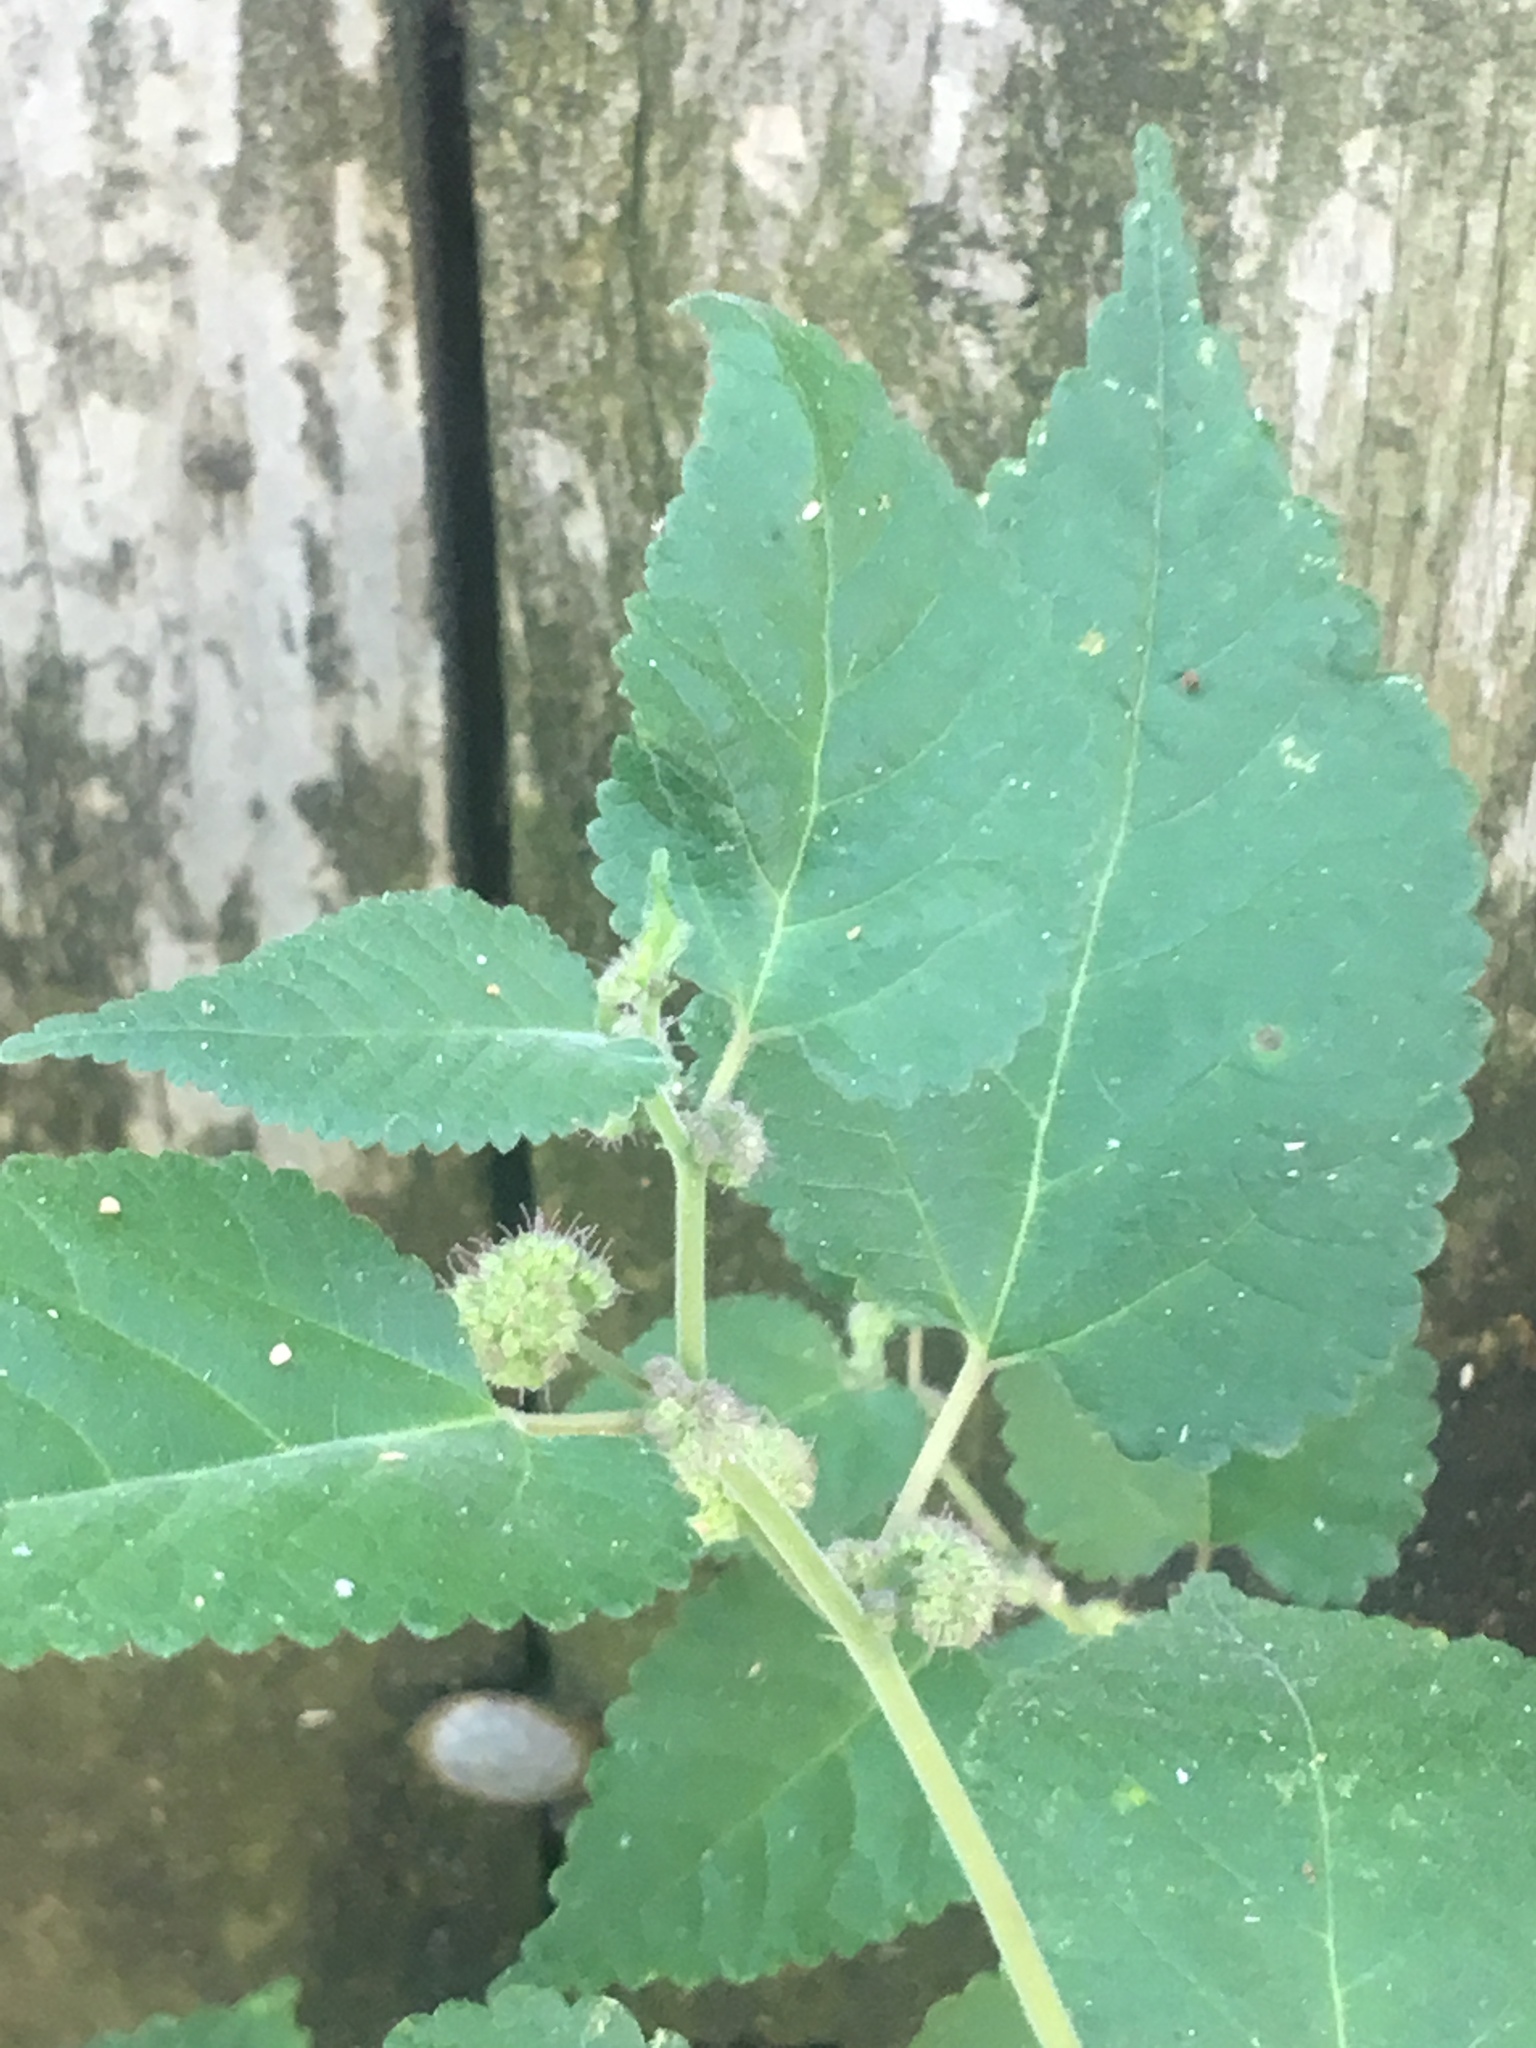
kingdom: Plantae
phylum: Tracheophyta
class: Magnoliopsida
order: Rosales
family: Moraceae
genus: Fatoua
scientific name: Fatoua villosa
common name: Hairy crabweed
